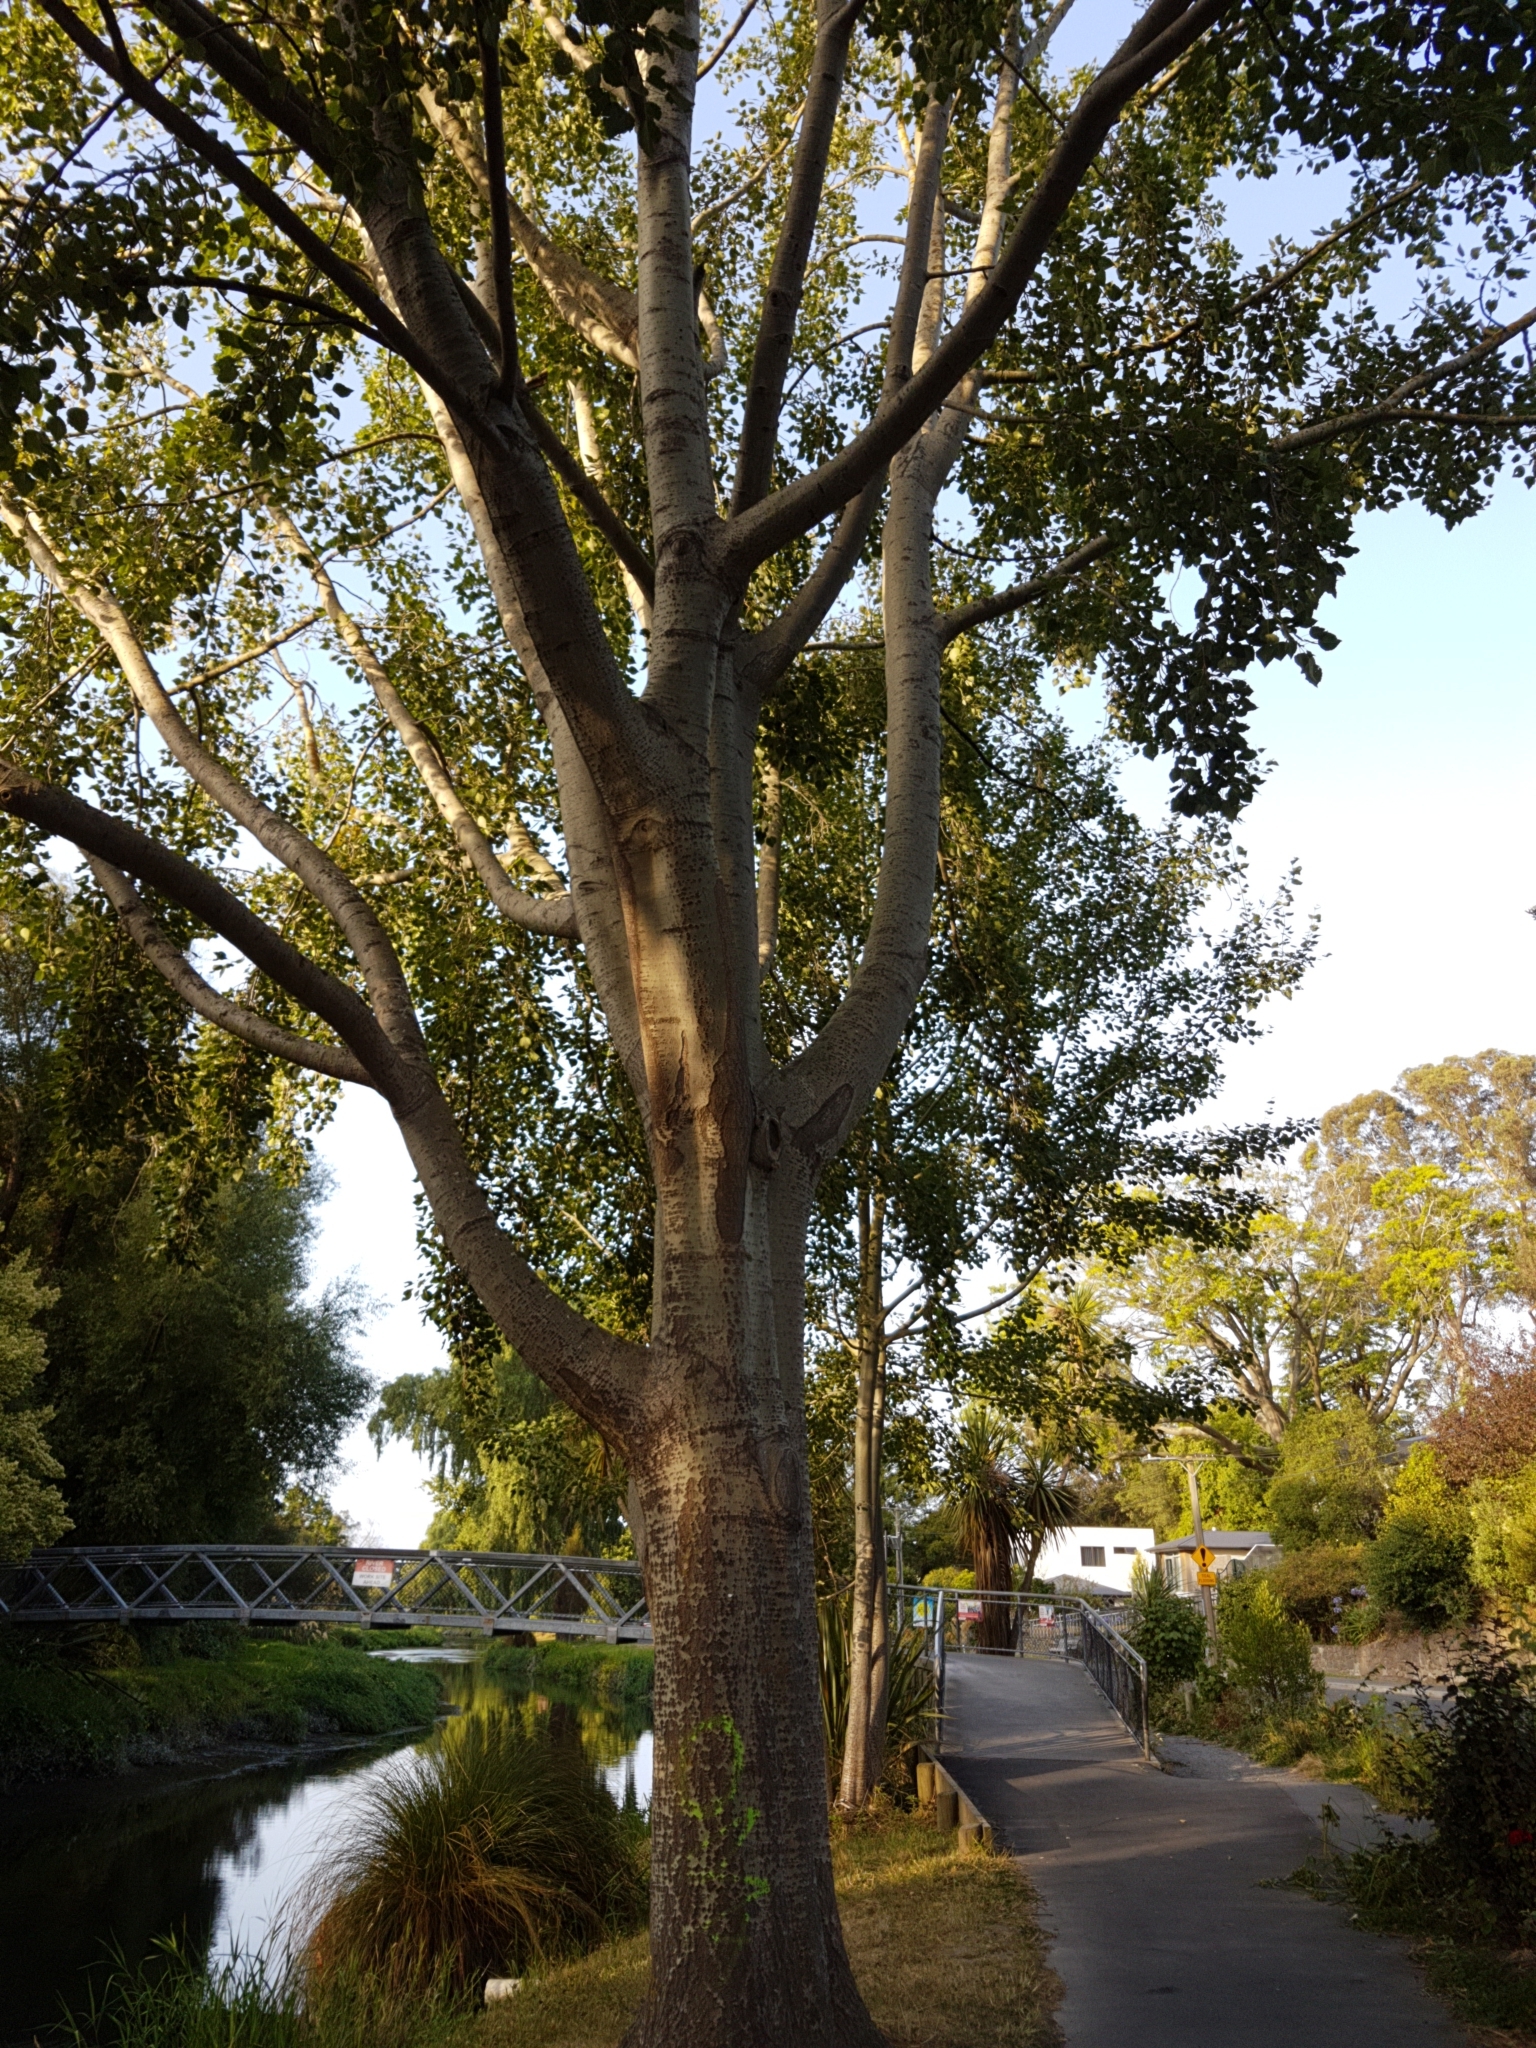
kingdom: Fungi
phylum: Basidiomycota
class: Pucciniomycetes
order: Pucciniales
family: Melampsoraceae
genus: Melampsora
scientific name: Melampsora laricis-populina
